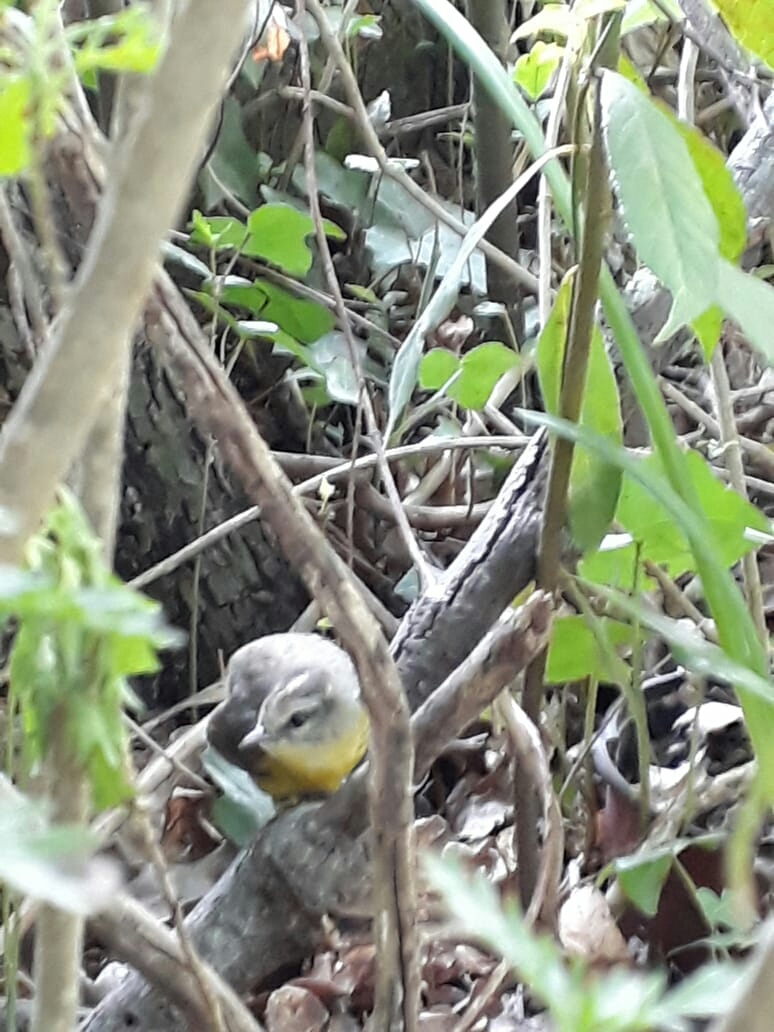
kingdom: Animalia
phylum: Chordata
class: Aves
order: Passeriformes
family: Parulidae
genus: Basileuterus
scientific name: Basileuterus culicivorus
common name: Golden-crowned warbler
